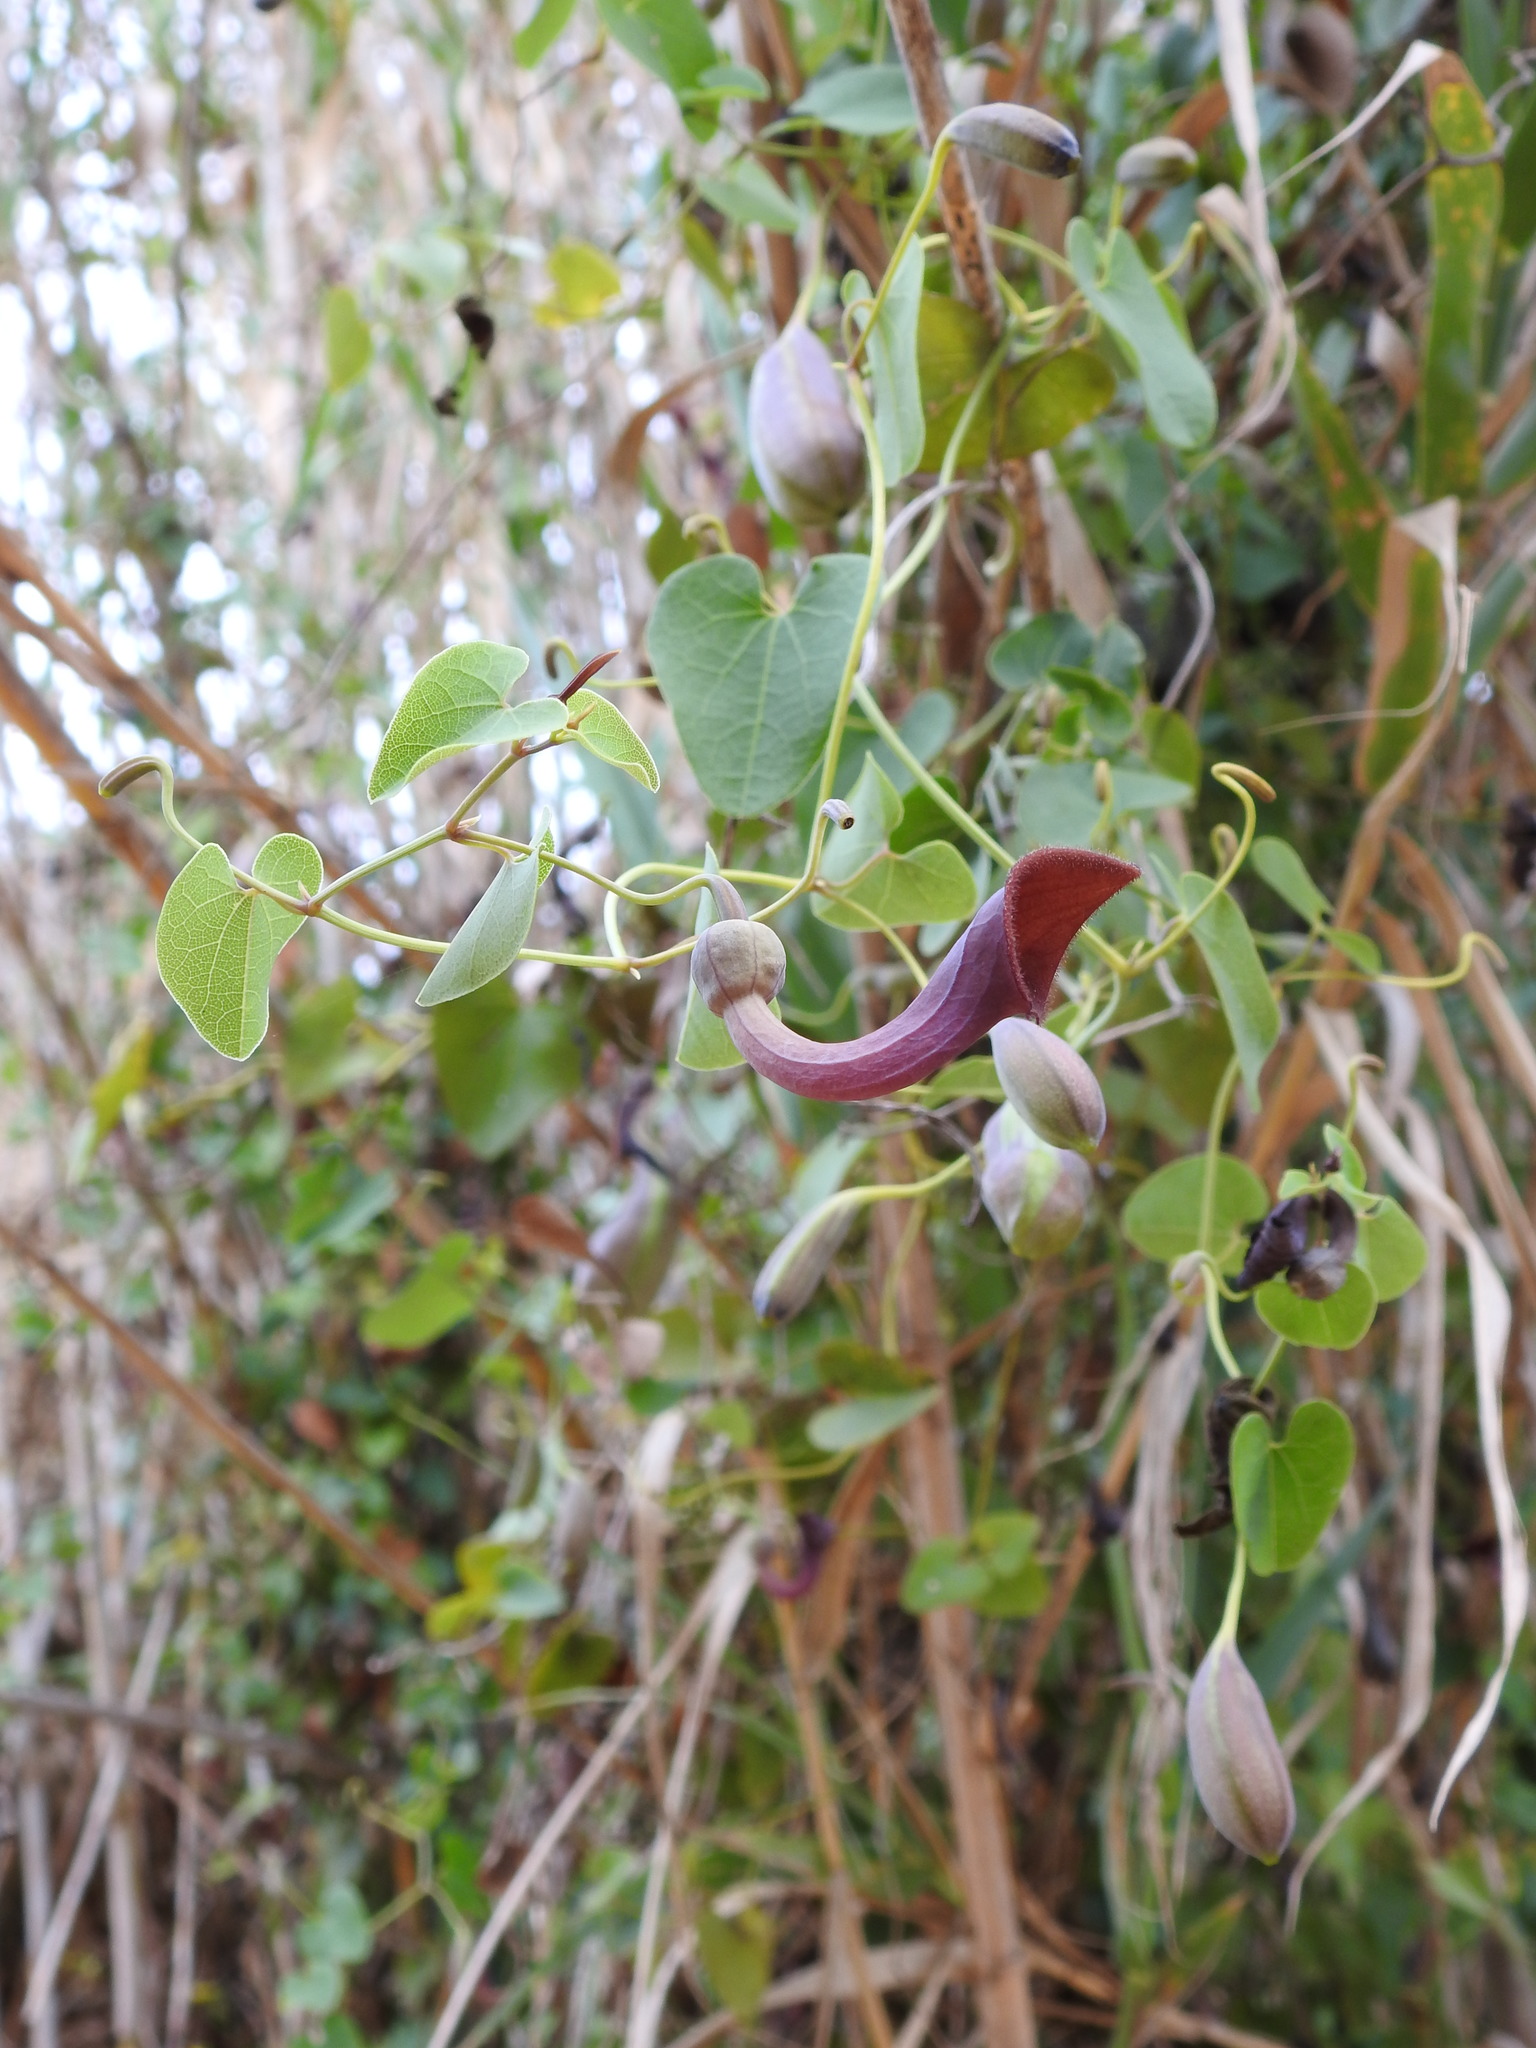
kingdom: Plantae
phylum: Tracheophyta
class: Magnoliopsida
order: Piperales
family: Aristolochiaceae
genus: Aristolochia
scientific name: Aristolochia baetica
